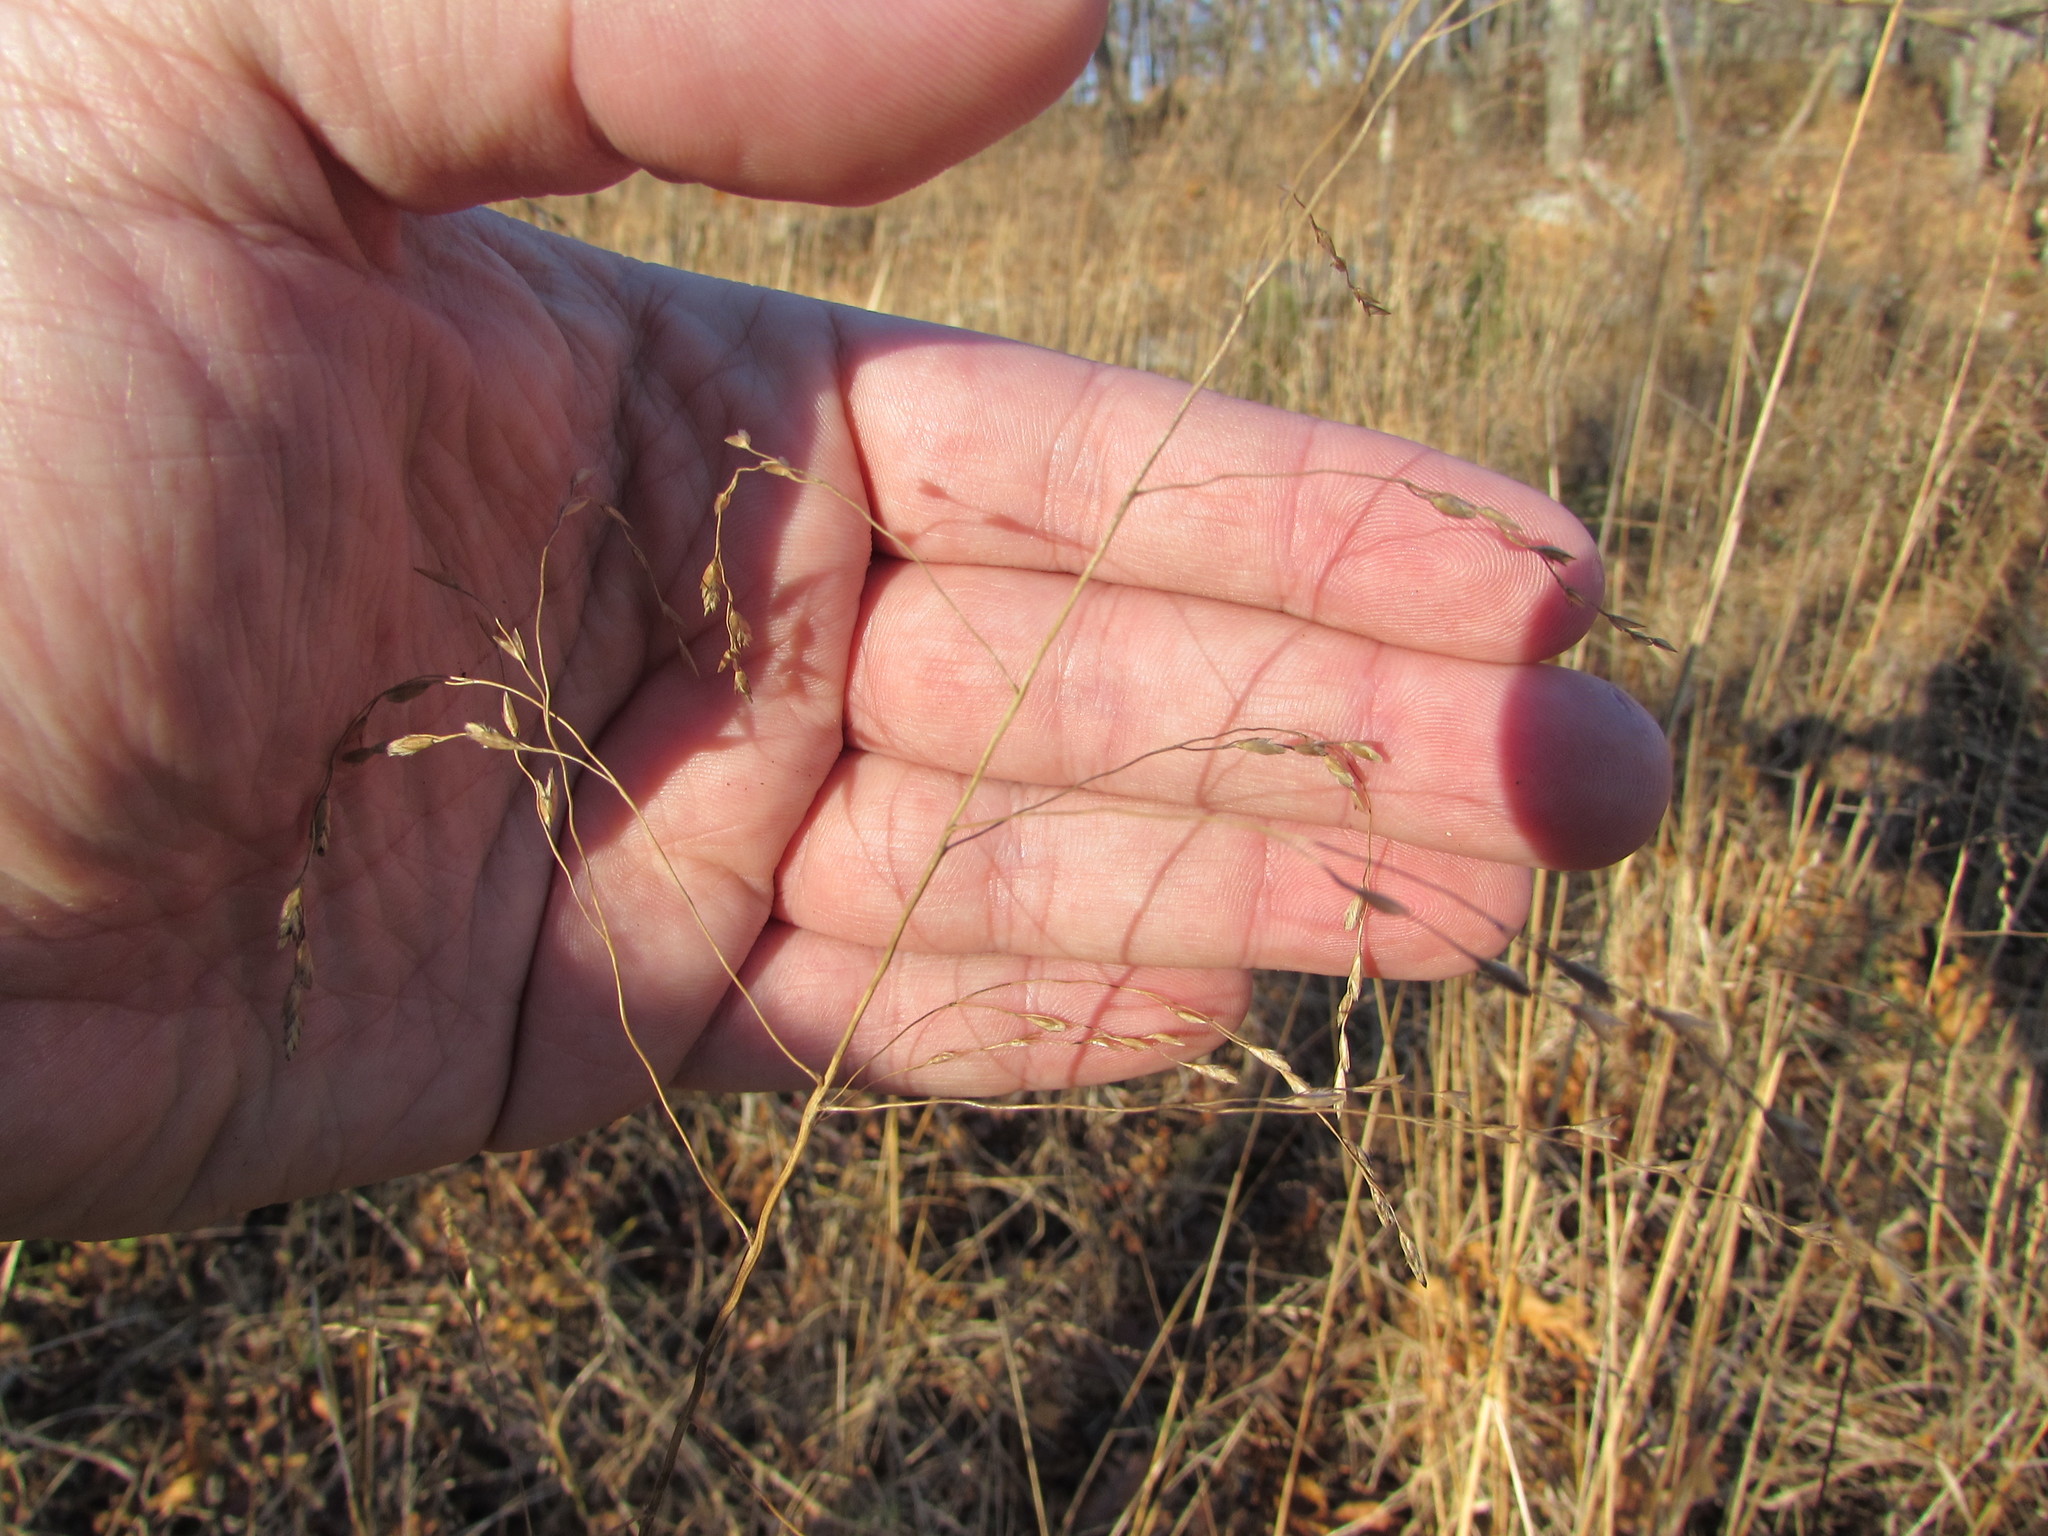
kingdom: Plantae
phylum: Tracheophyta
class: Liliopsida
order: Poales
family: Poaceae
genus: Tridens
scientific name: Tridens flavus
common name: Purpletop
